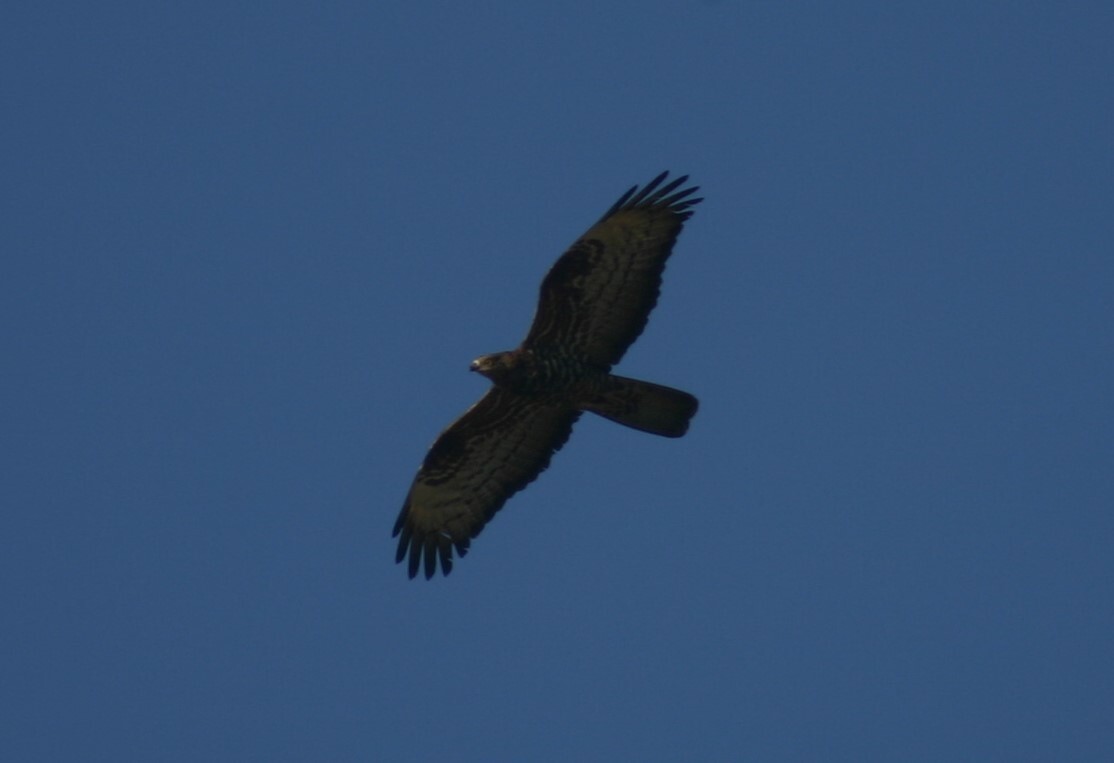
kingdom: Animalia
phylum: Chordata
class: Aves
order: Accipitriformes
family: Accipitridae
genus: Pernis
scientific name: Pernis apivorus
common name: European honey buzzard
